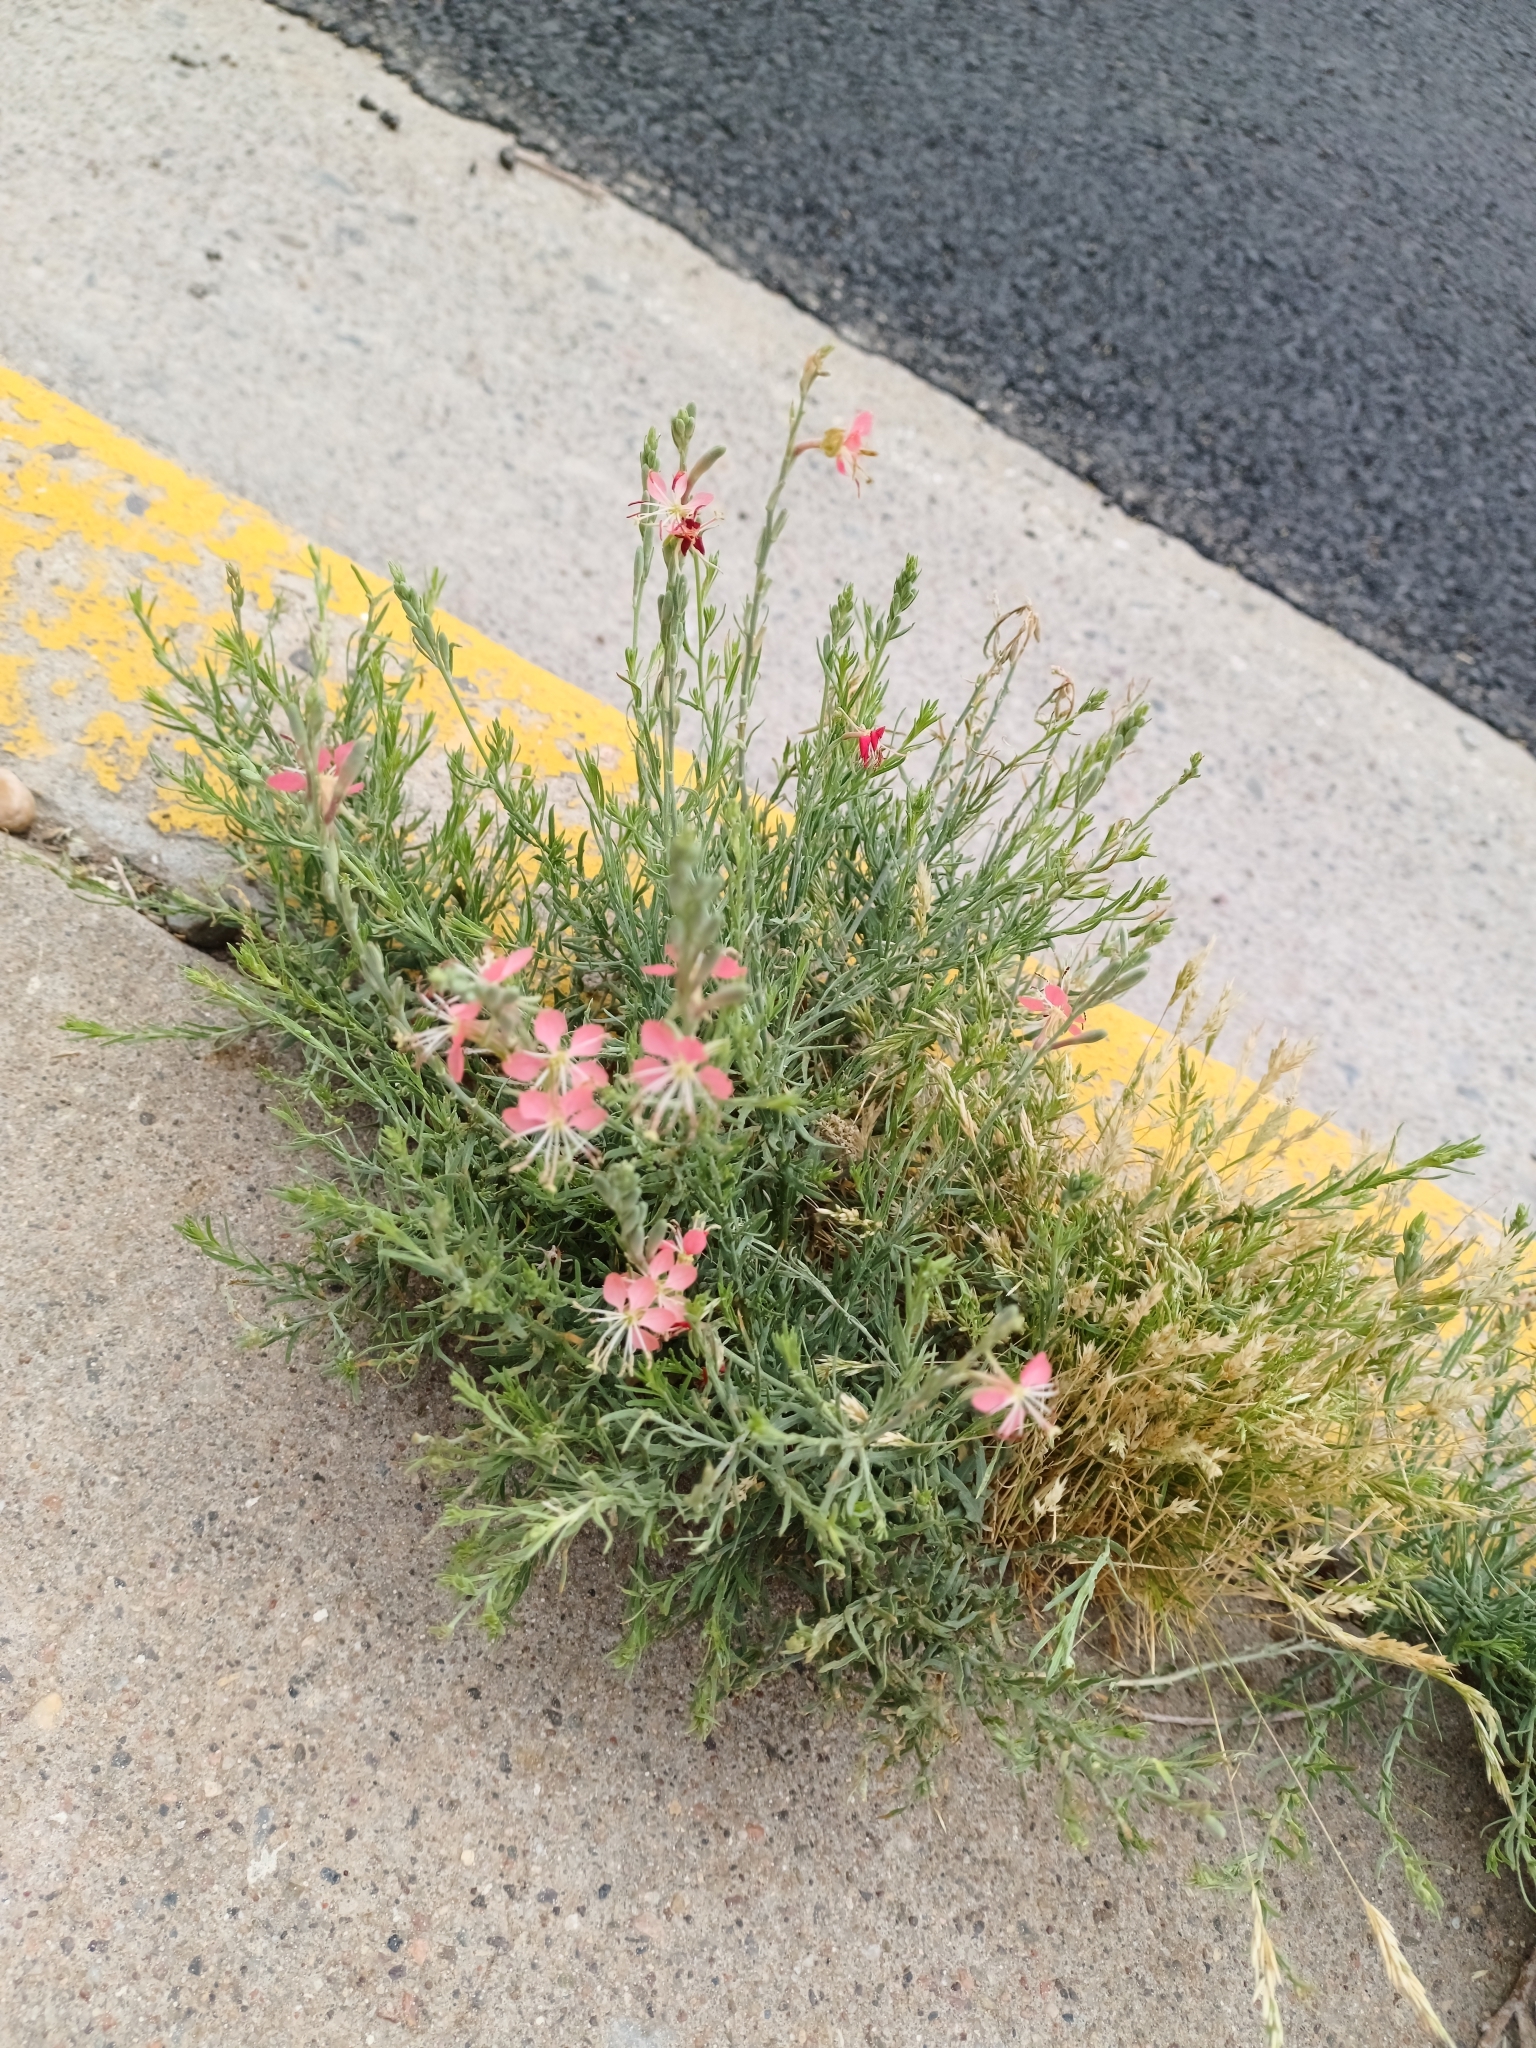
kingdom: Plantae
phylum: Tracheophyta
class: Magnoliopsida
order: Myrtales
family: Onagraceae
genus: Oenothera
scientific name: Oenothera suffrutescens
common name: Scarlet beeblossom
